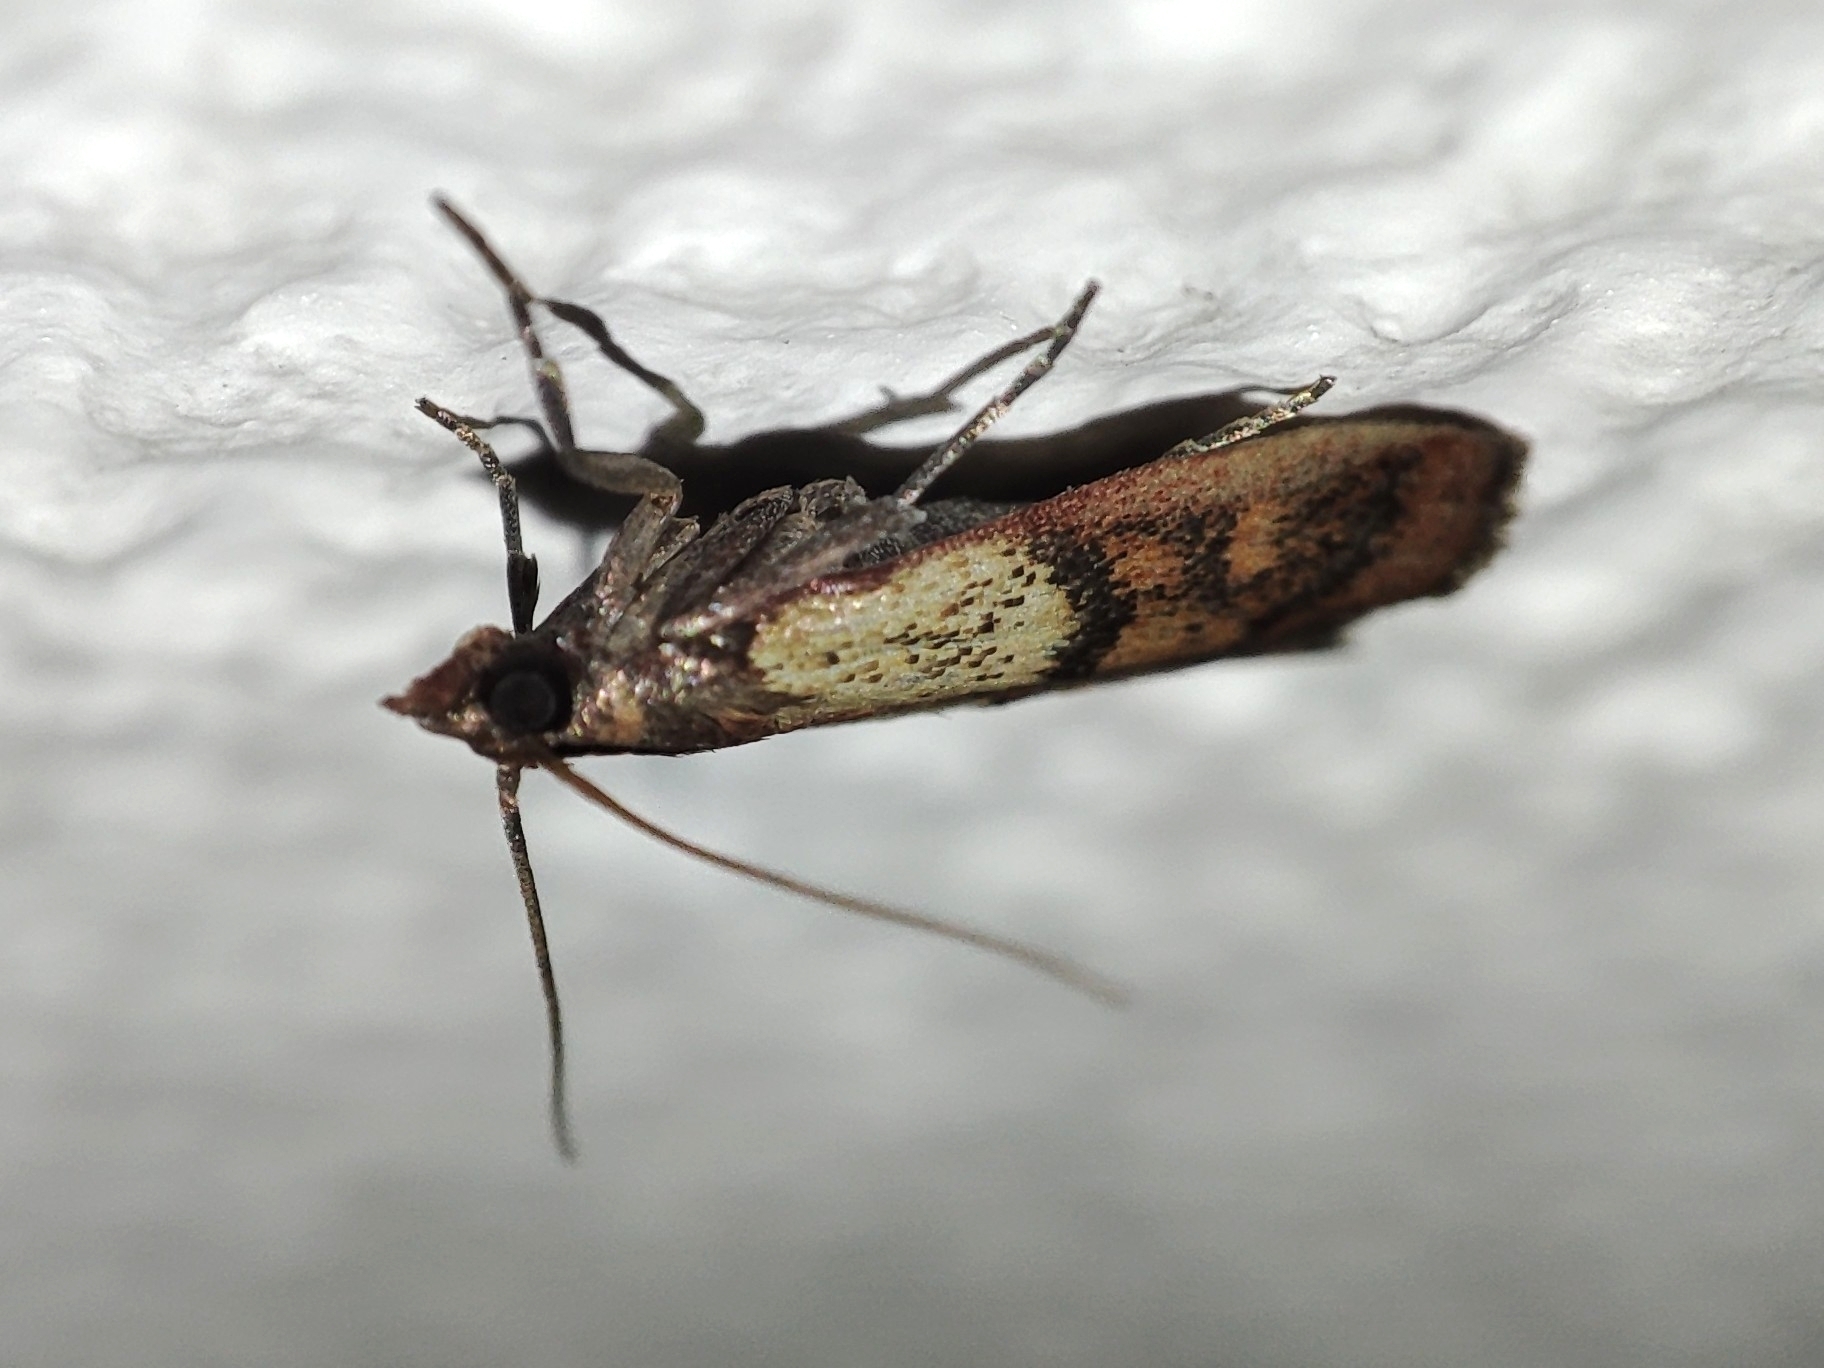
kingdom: Animalia
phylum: Arthropoda
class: Insecta
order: Lepidoptera
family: Pyralidae
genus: Plodia
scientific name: Plodia interpunctella
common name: Indian meal moth
